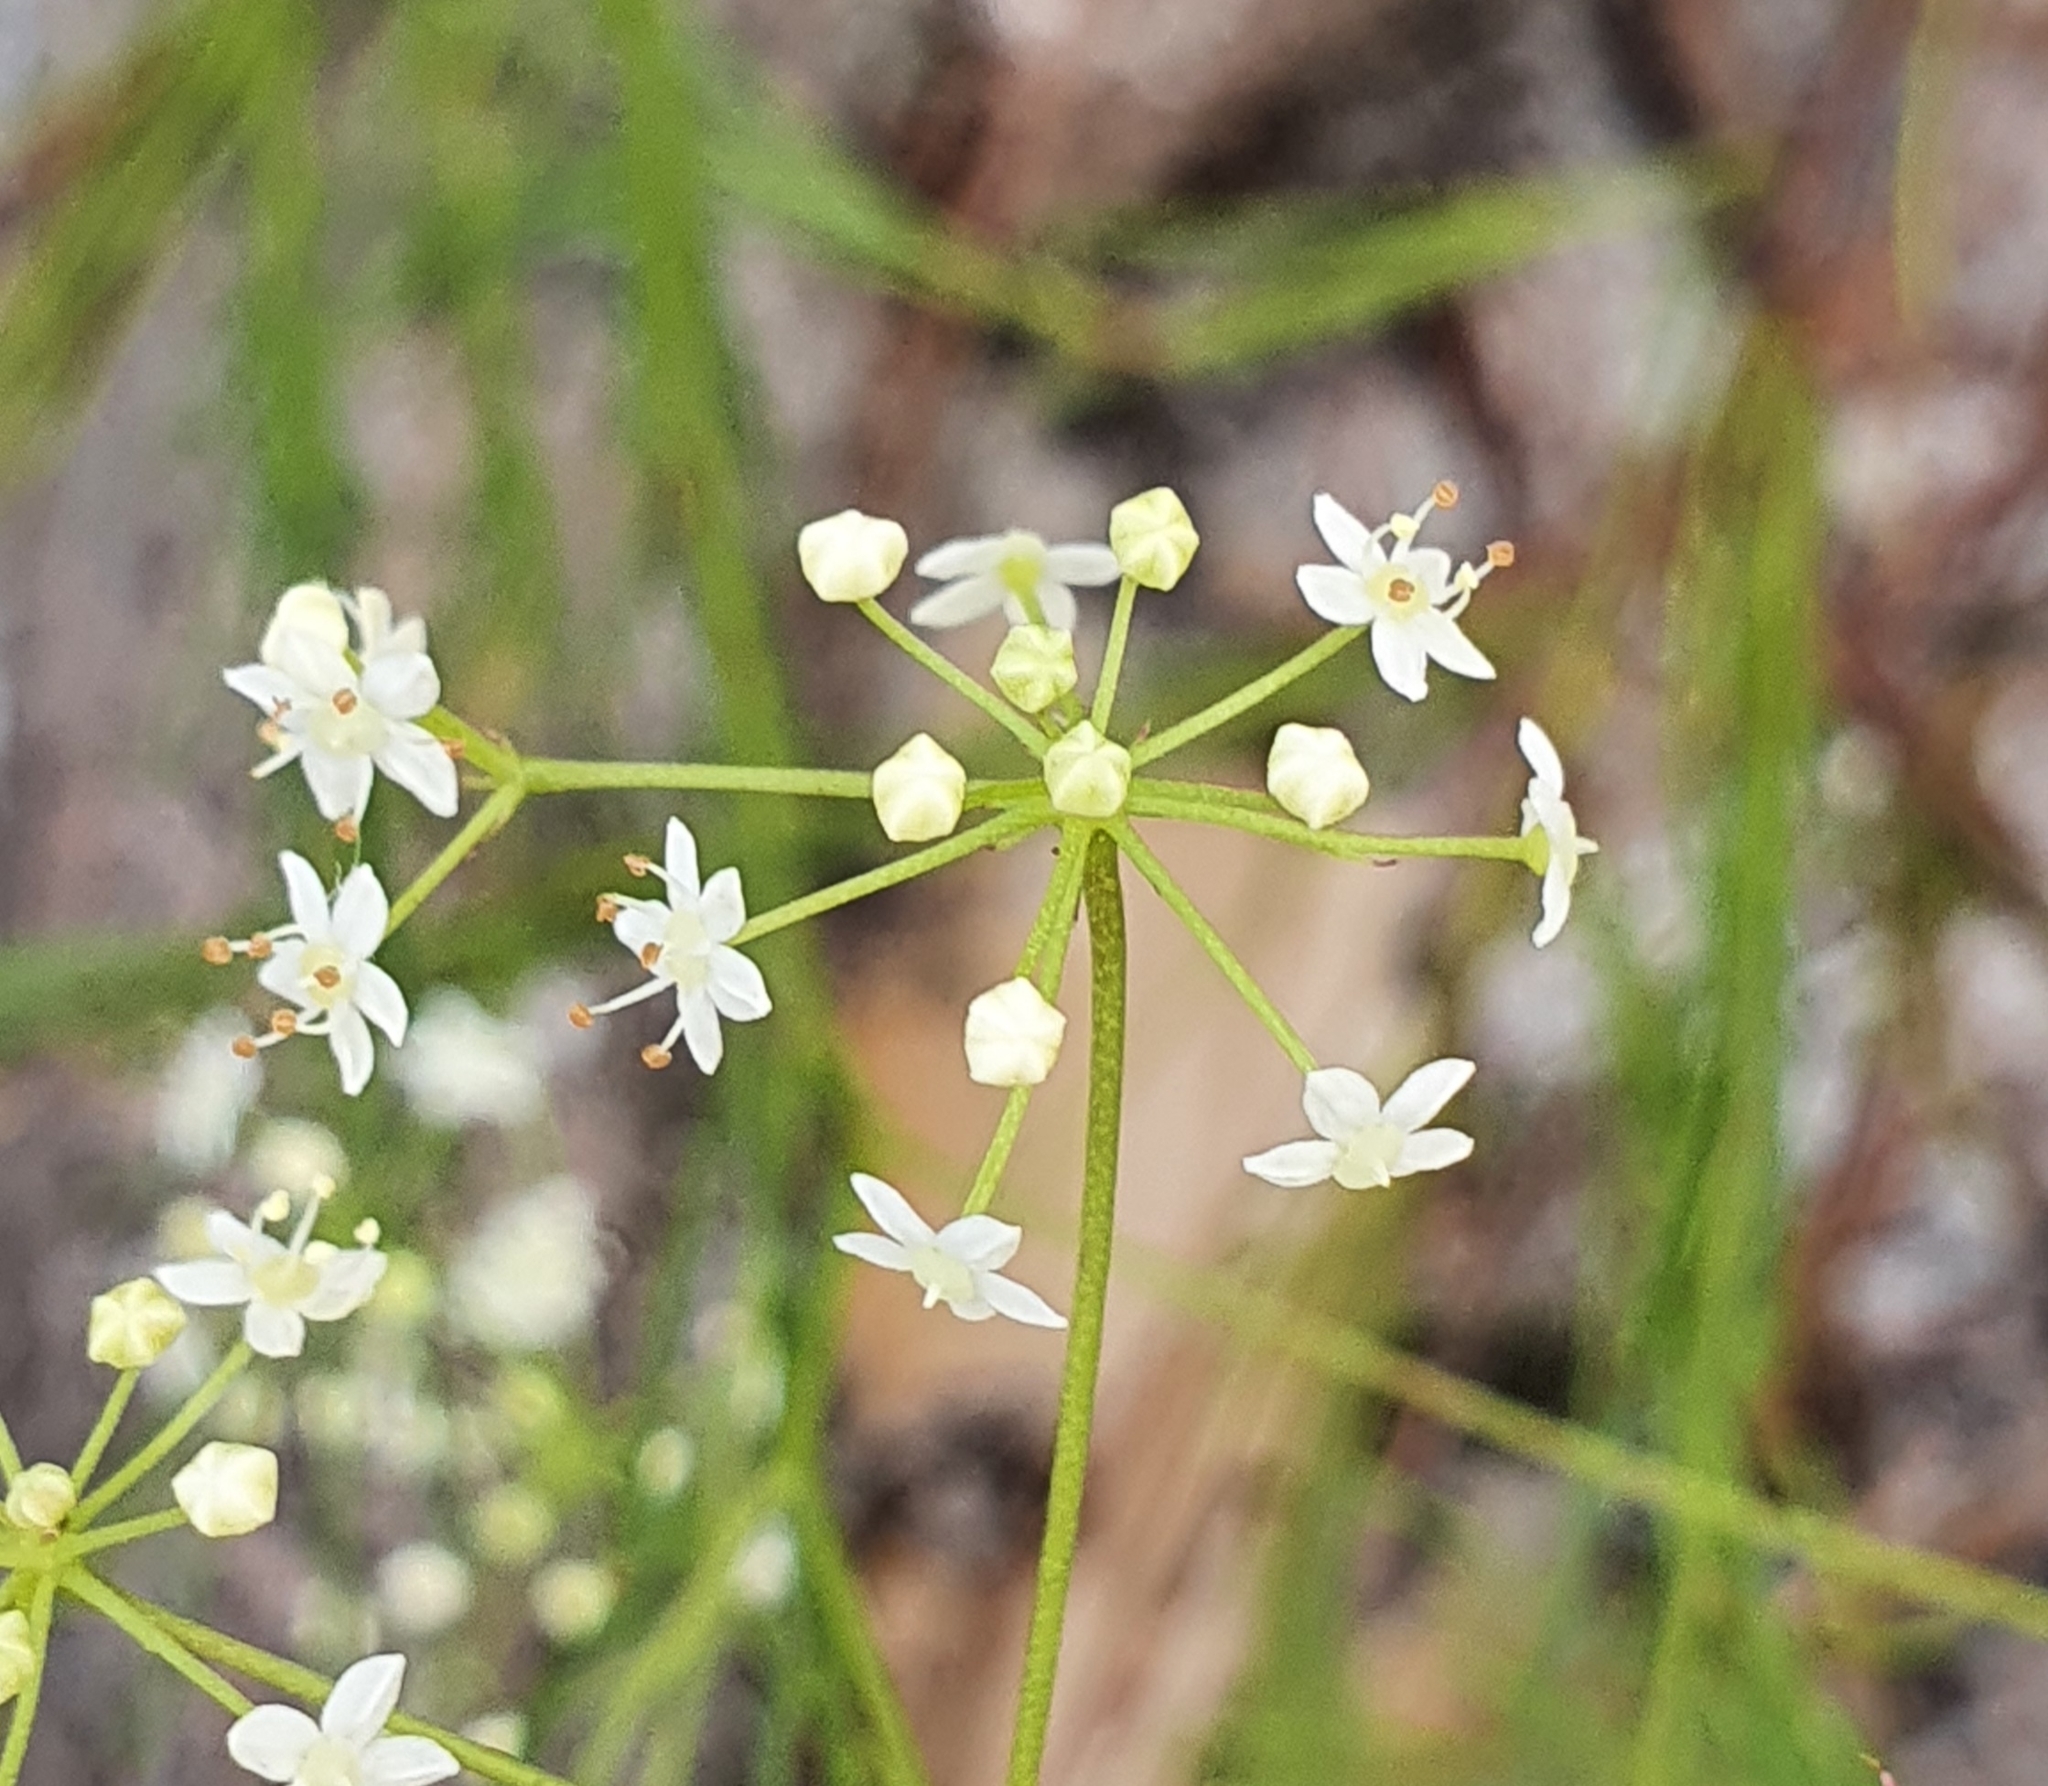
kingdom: Plantae
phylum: Tracheophyta
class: Magnoliopsida
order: Apiales
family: Apiaceae
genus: Platysace
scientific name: Platysace linearifolia
